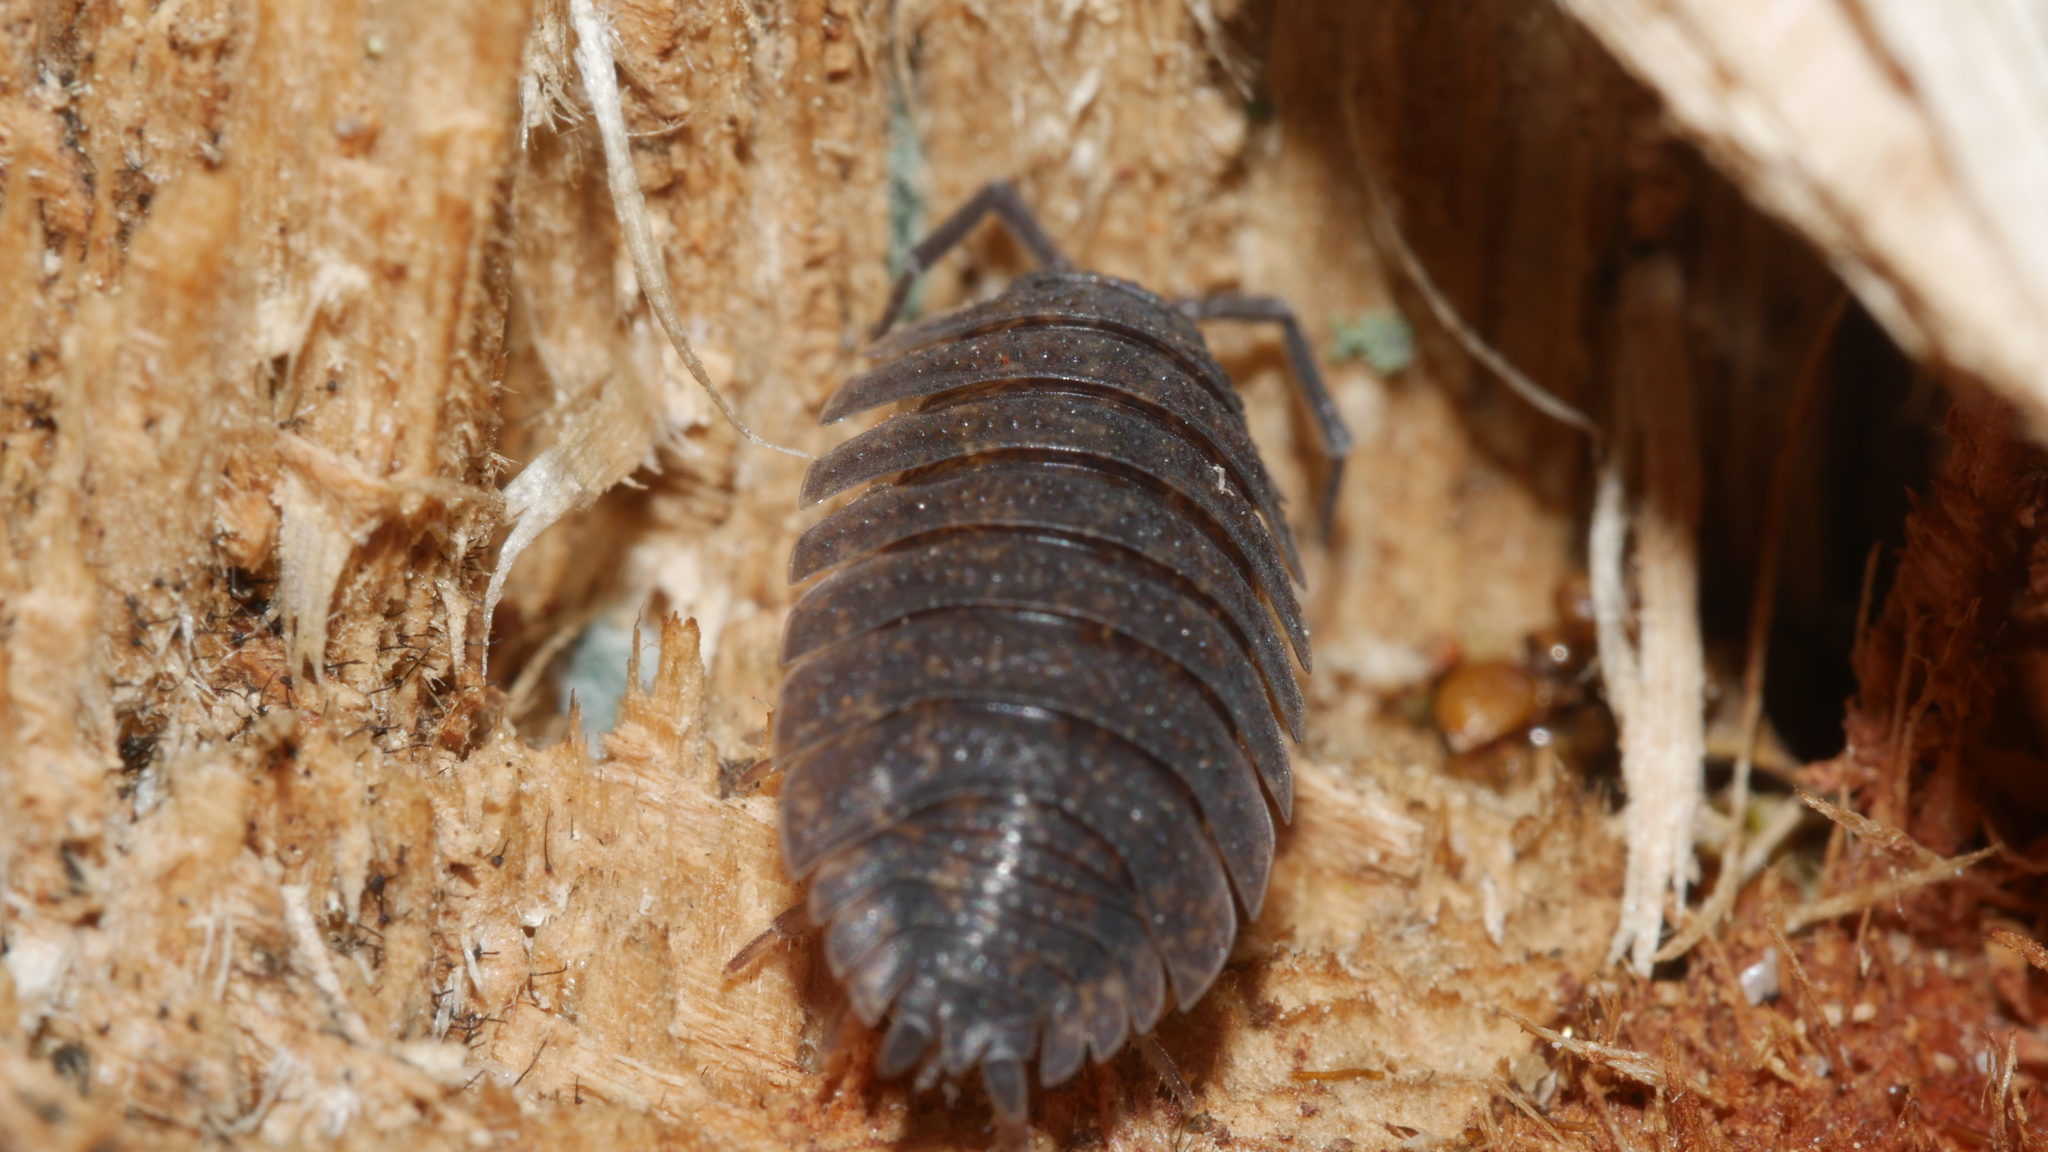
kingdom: Animalia
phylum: Arthropoda
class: Malacostraca
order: Isopoda
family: Porcellionidae
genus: Porcellio
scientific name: Porcellio scaber
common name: Common rough woodlouse
